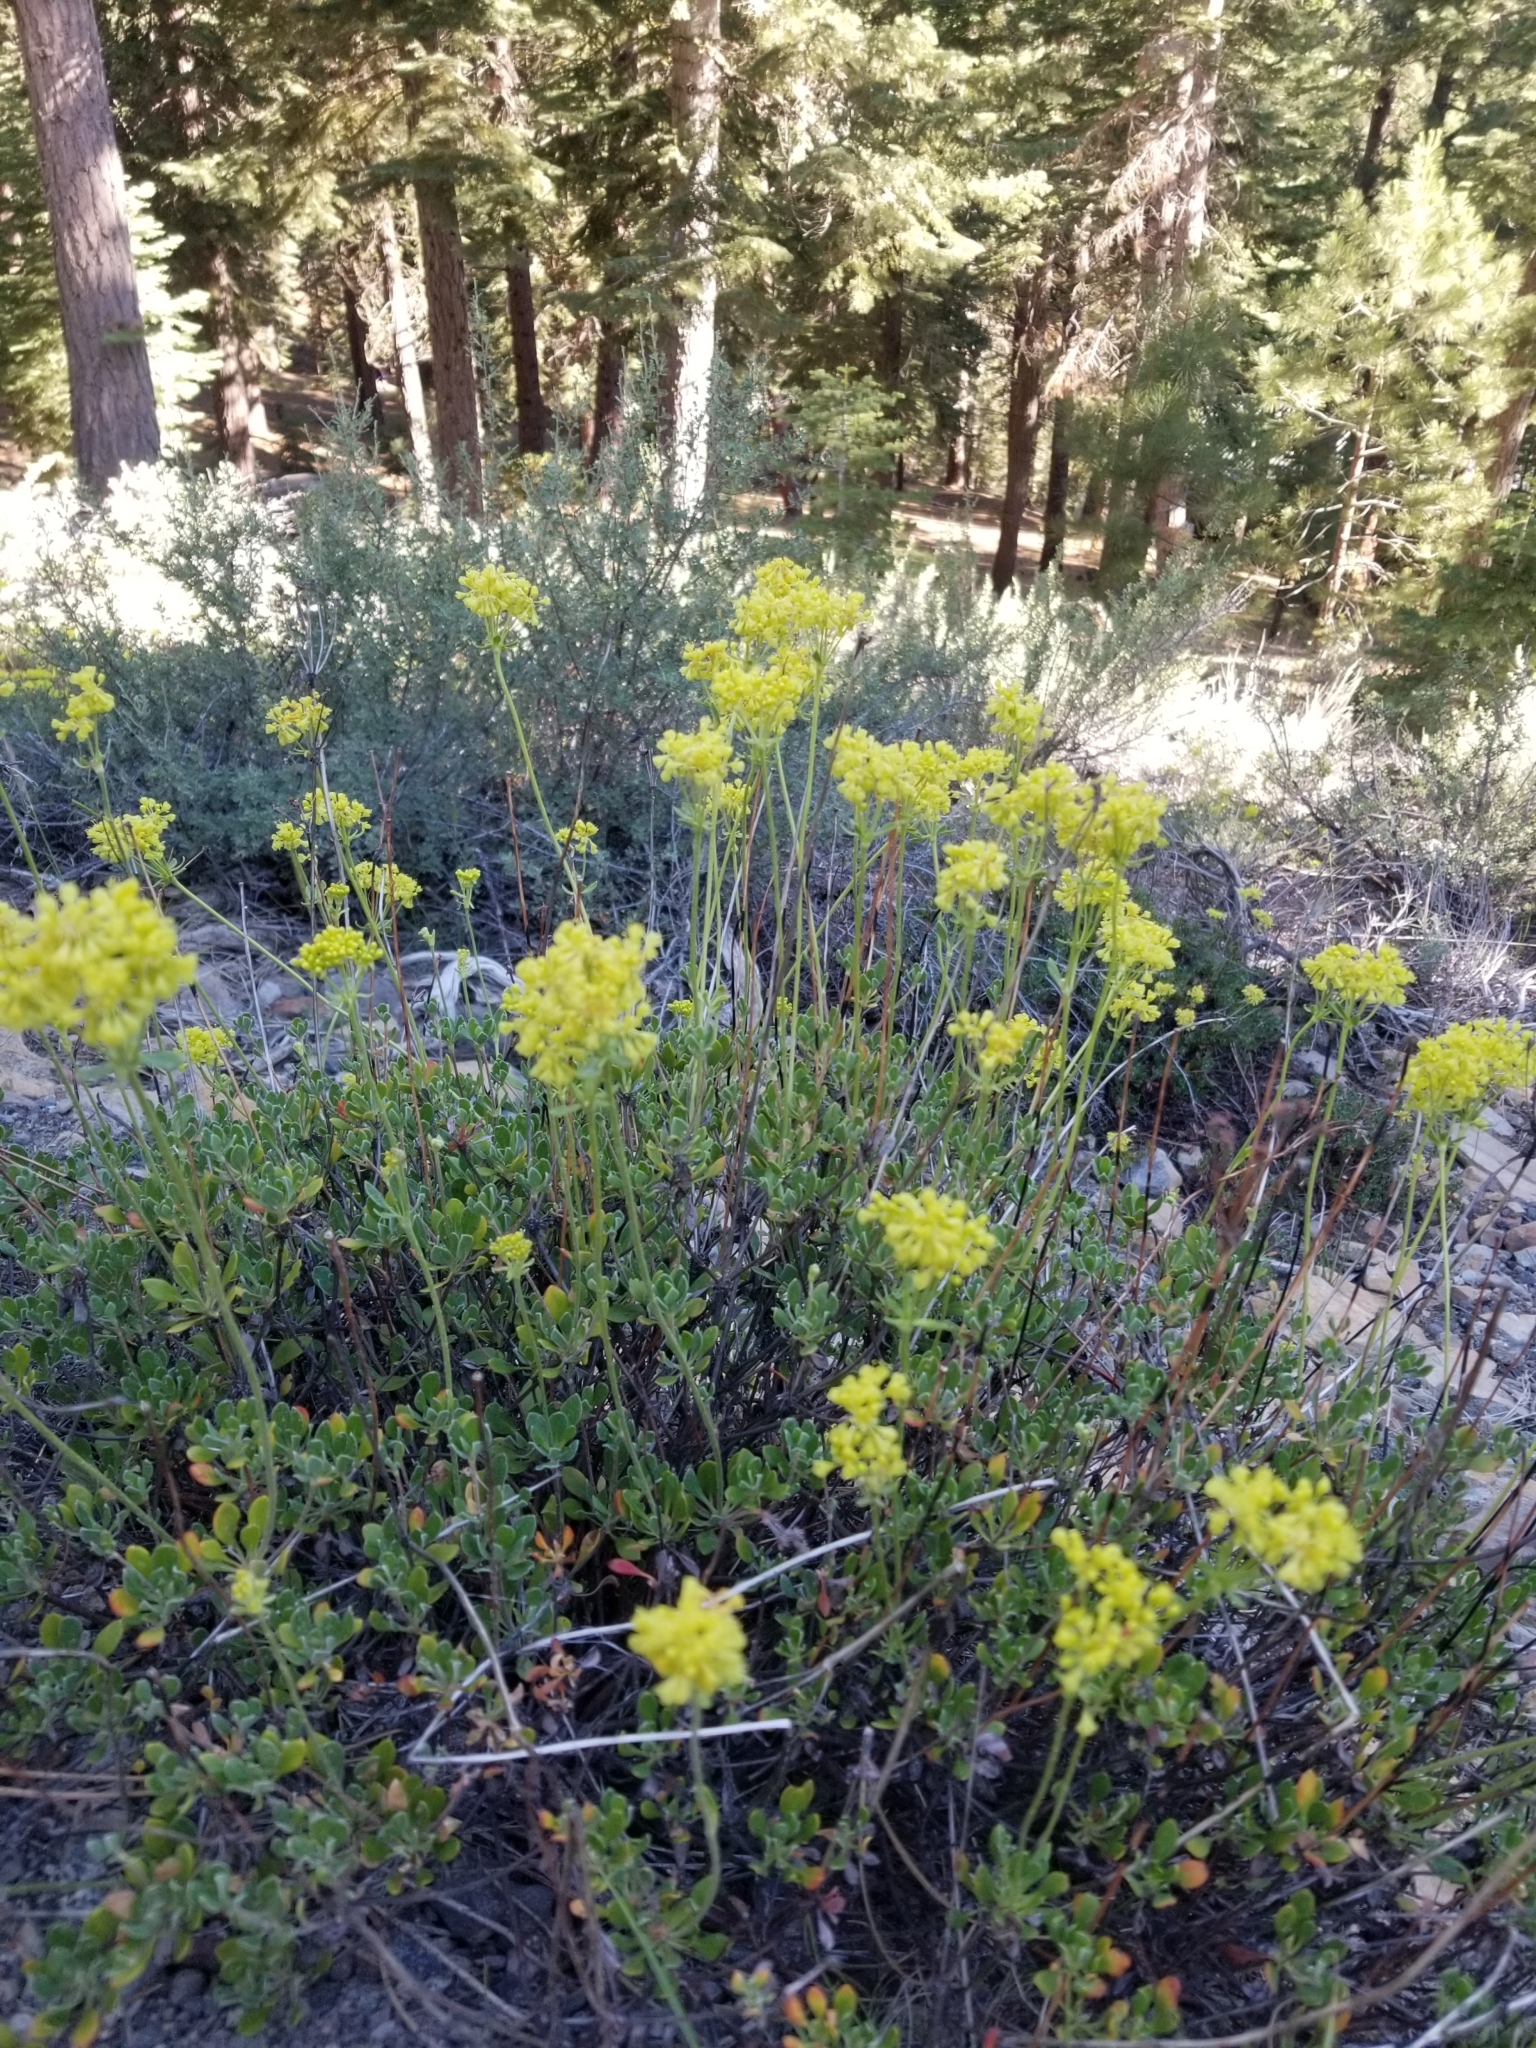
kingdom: Plantae
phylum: Tracheophyta
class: Magnoliopsida
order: Caryophyllales
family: Polygonaceae
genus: Eriogonum
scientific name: Eriogonum umbellatum
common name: Sulfur-buckwheat
